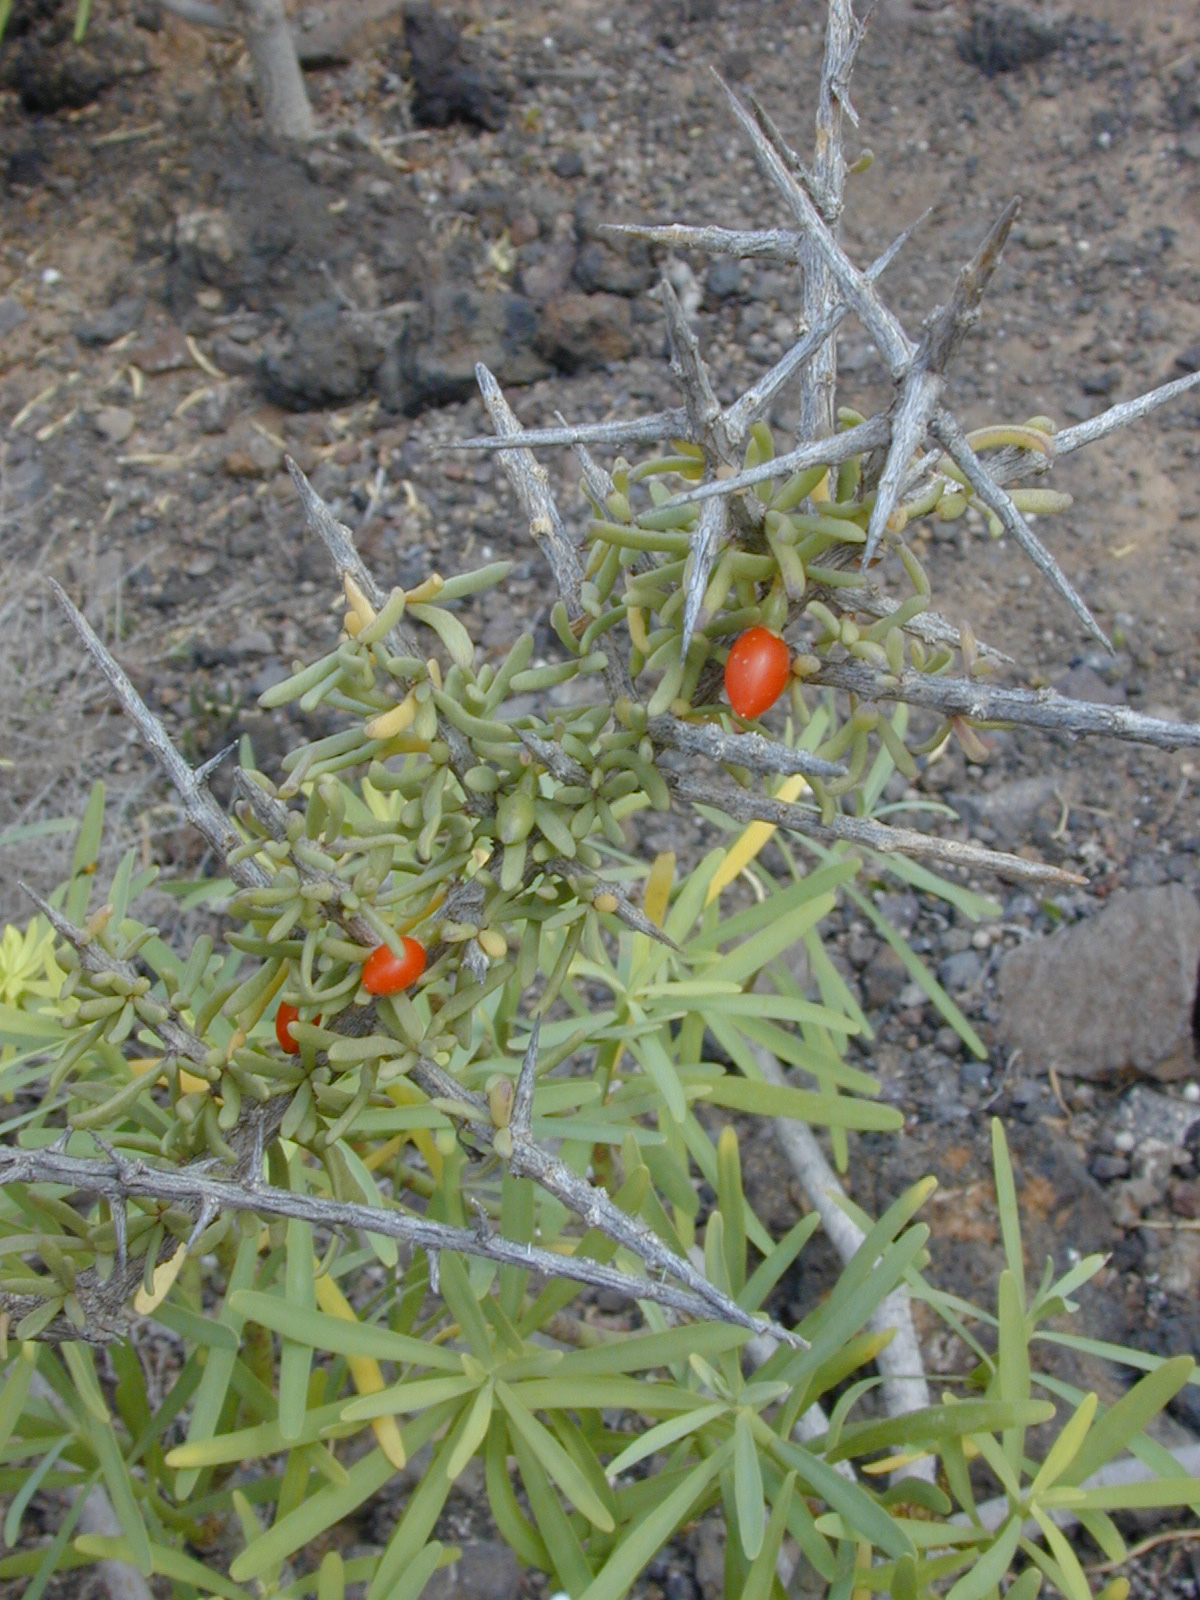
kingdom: Plantae
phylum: Tracheophyta
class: Magnoliopsida
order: Solanales
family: Solanaceae
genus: Lycium
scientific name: Lycium intricatum
